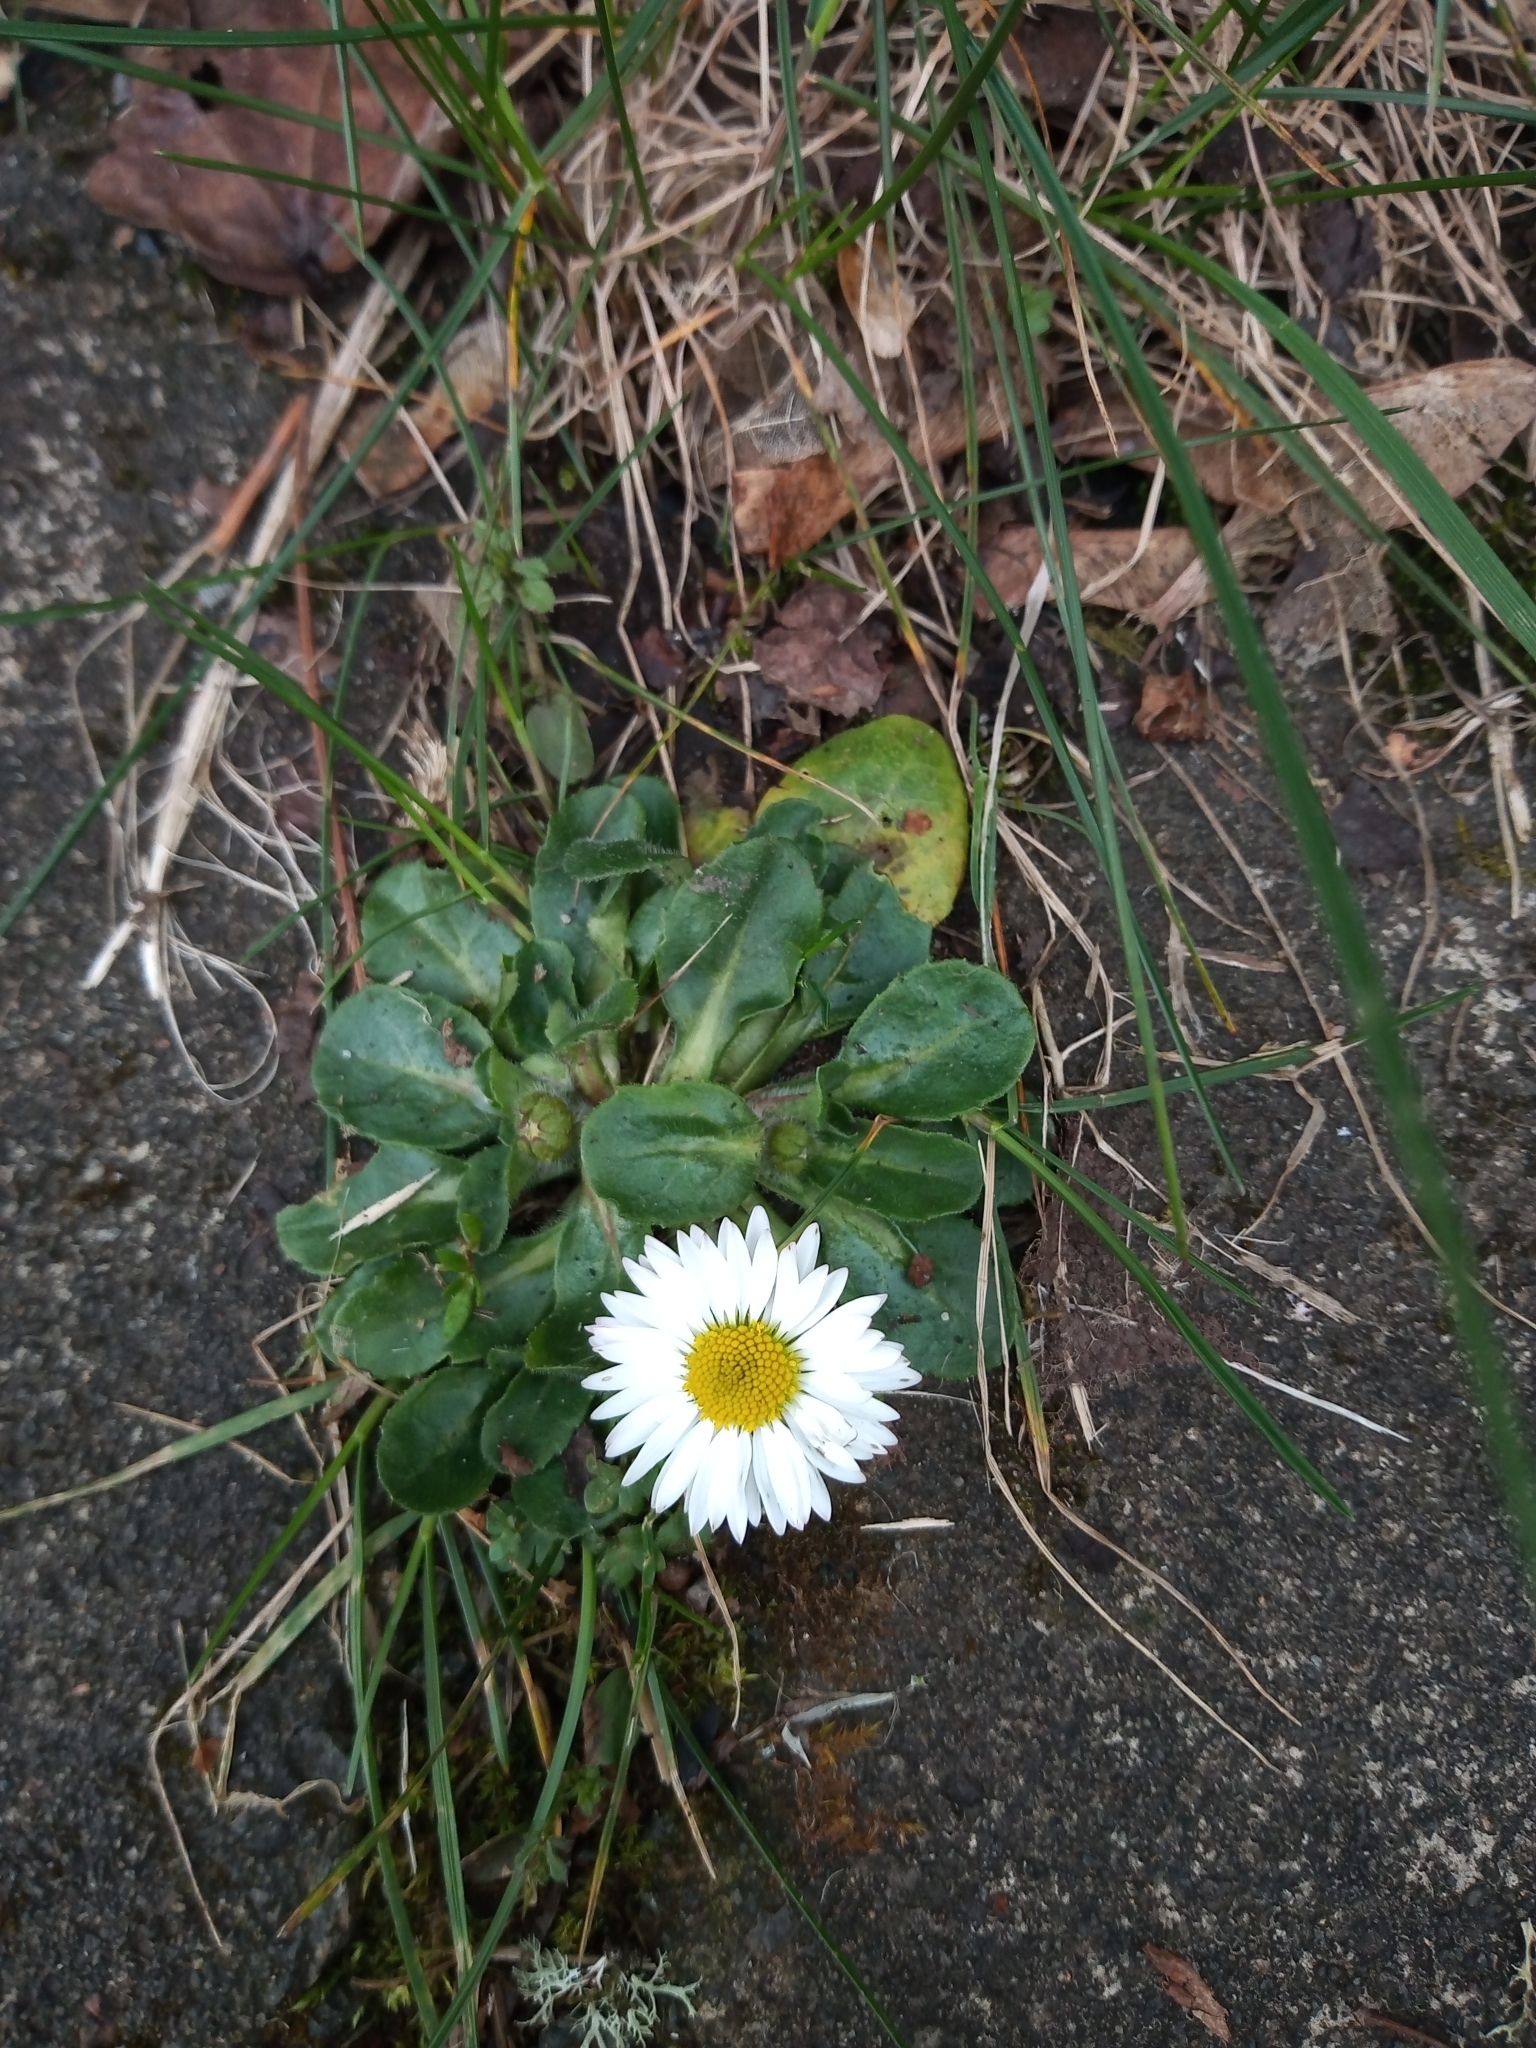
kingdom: Plantae
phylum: Tracheophyta
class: Magnoliopsida
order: Asterales
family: Asteraceae
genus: Bellis
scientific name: Bellis perennis
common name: Lawndaisy
